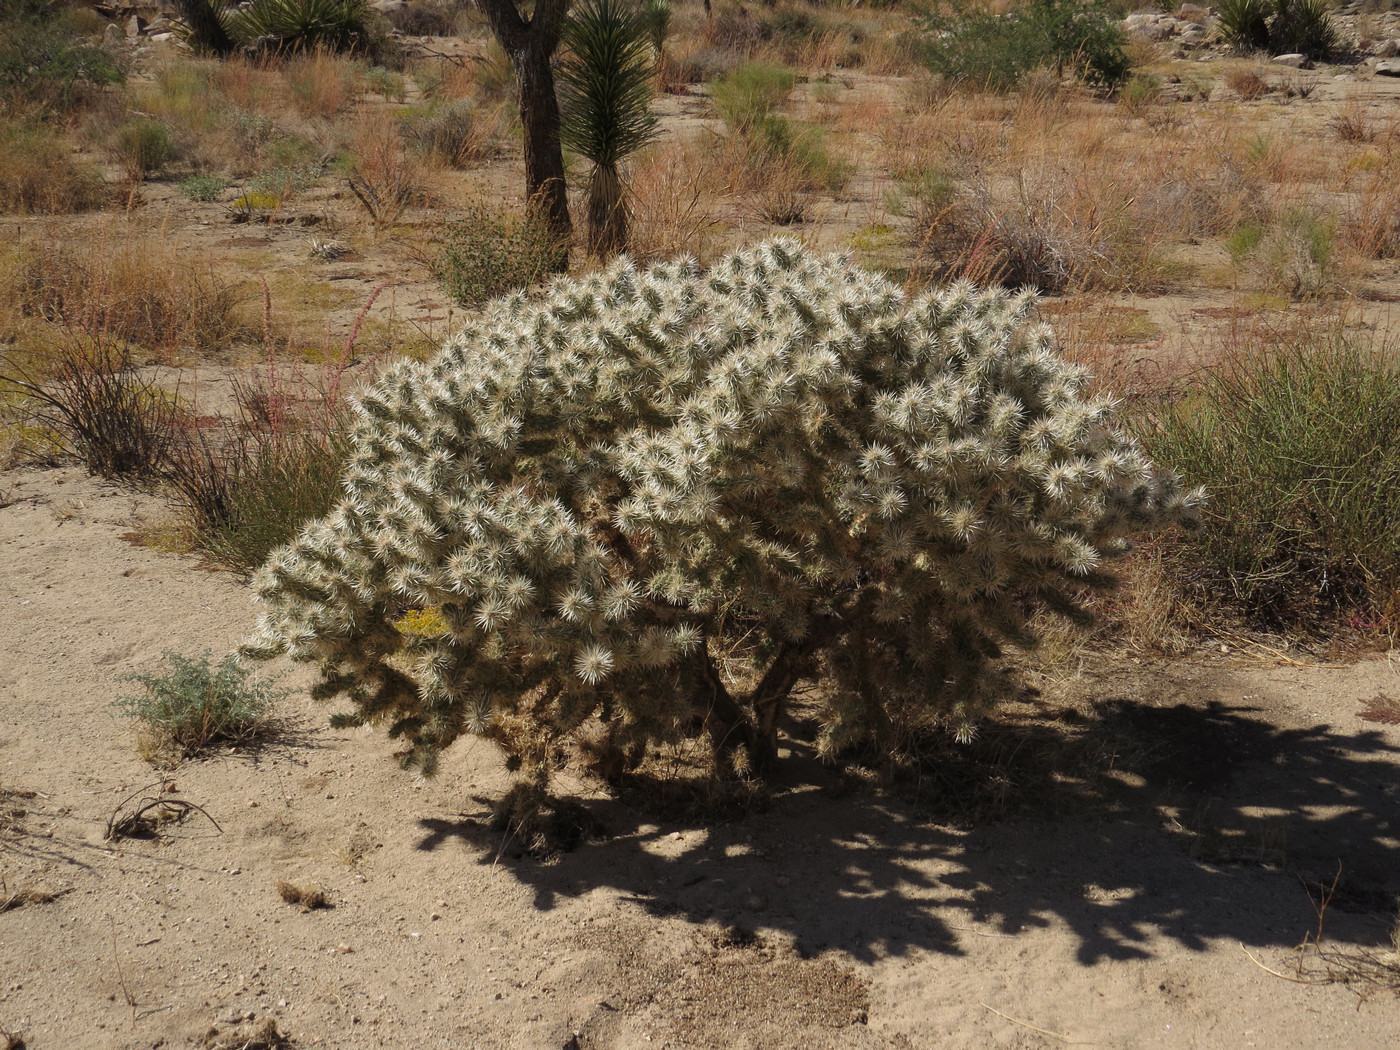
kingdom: Plantae
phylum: Tracheophyta
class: Magnoliopsida
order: Caryophyllales
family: Cactaceae
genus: Cylindropuntia
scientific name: Cylindropuntia echinocarpa
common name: Ground cholla
